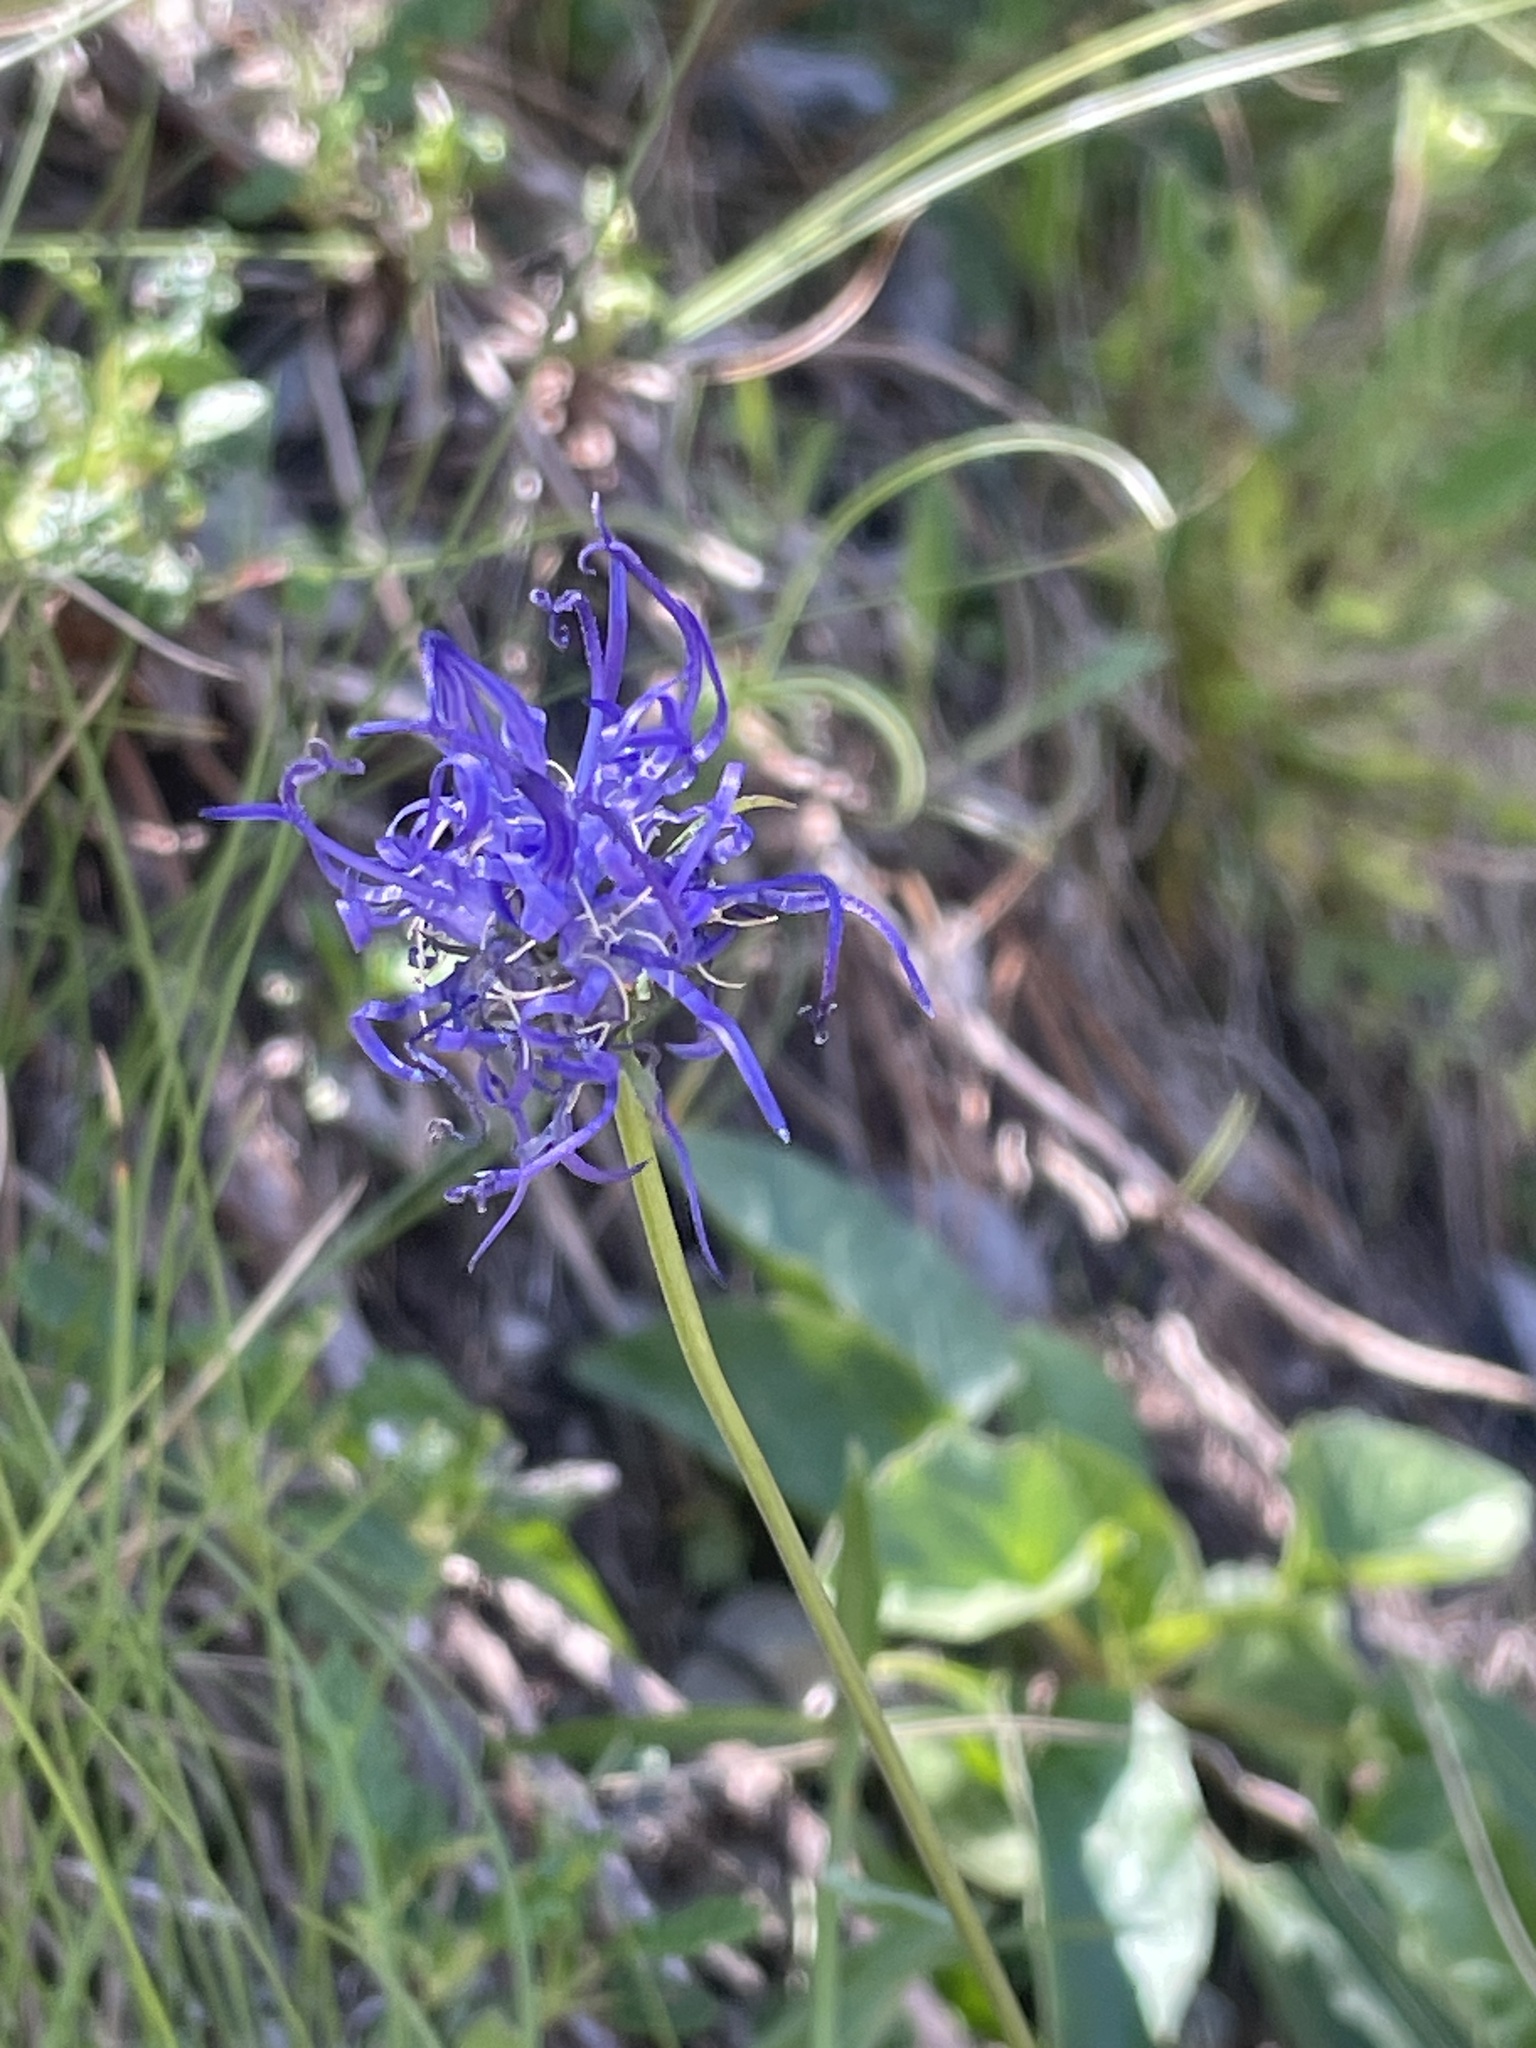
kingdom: Plantae
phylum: Tracheophyta
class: Magnoliopsida
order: Asterales
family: Campanulaceae
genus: Phyteuma
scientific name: Phyteuma orbiculare
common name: Round-headed rampion
